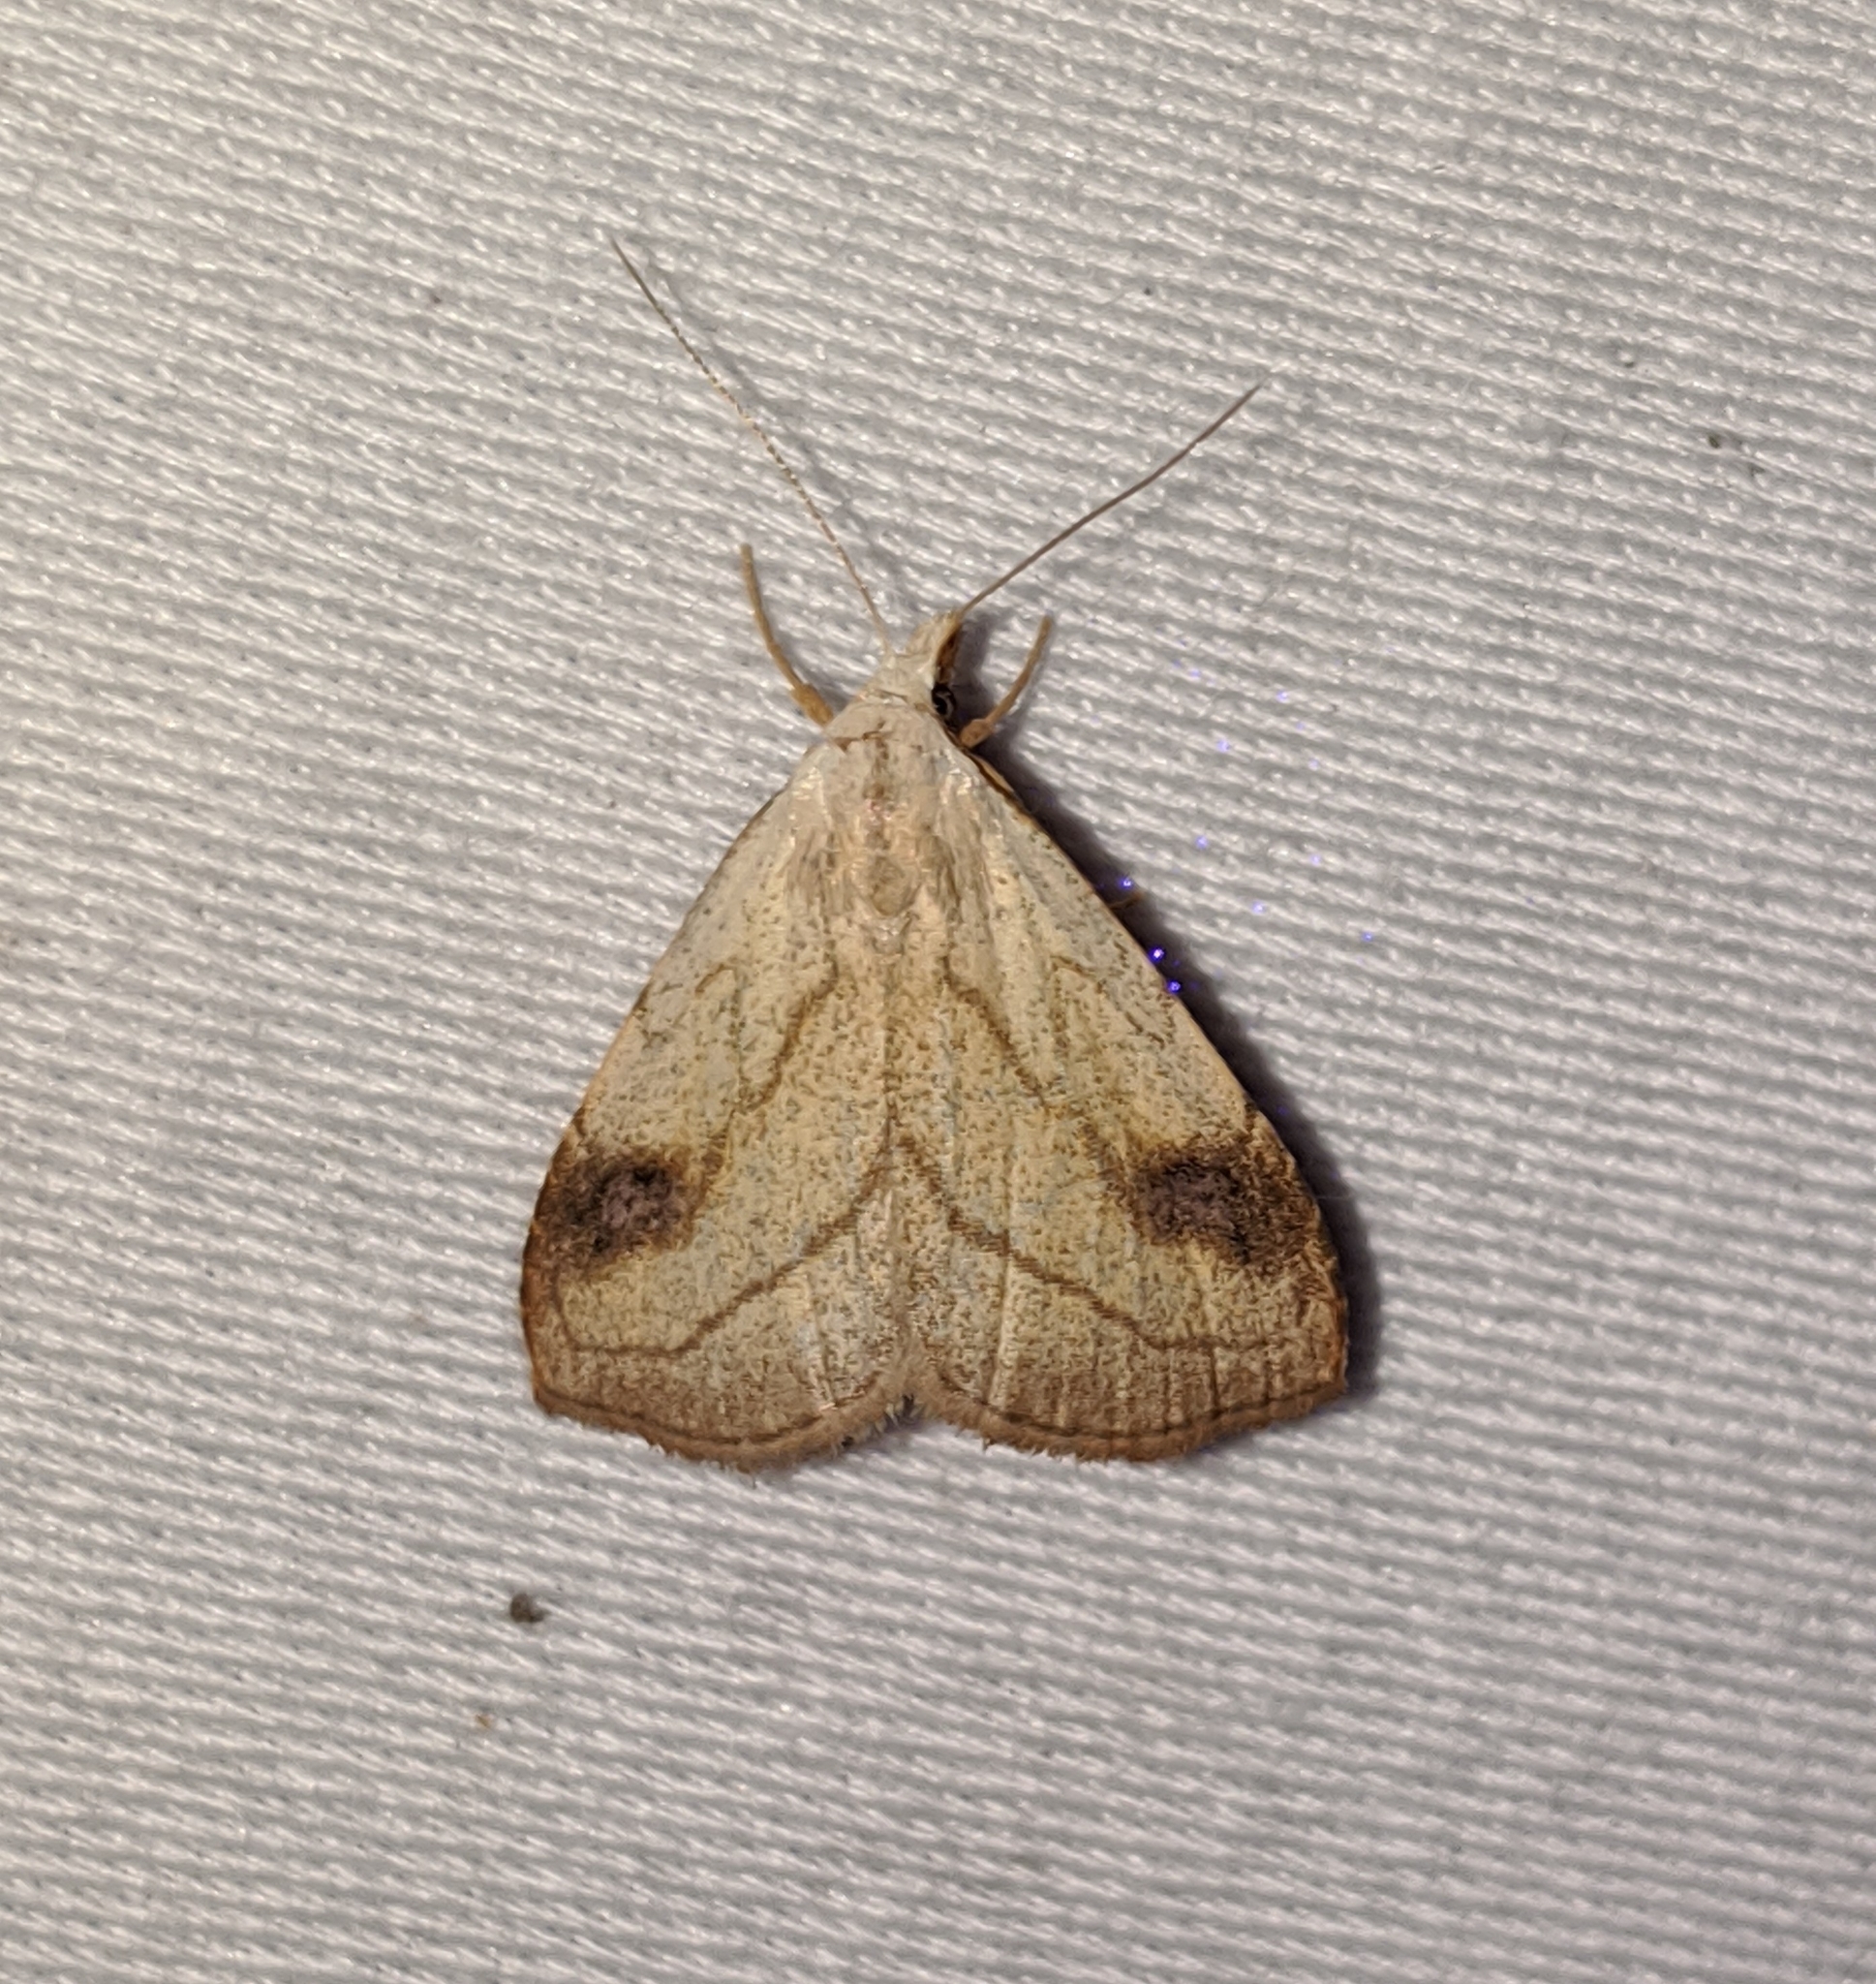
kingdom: Animalia
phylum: Arthropoda
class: Insecta
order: Lepidoptera
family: Erebidae
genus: Rivula
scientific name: Rivula propinqualis
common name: Spotted grass moth
